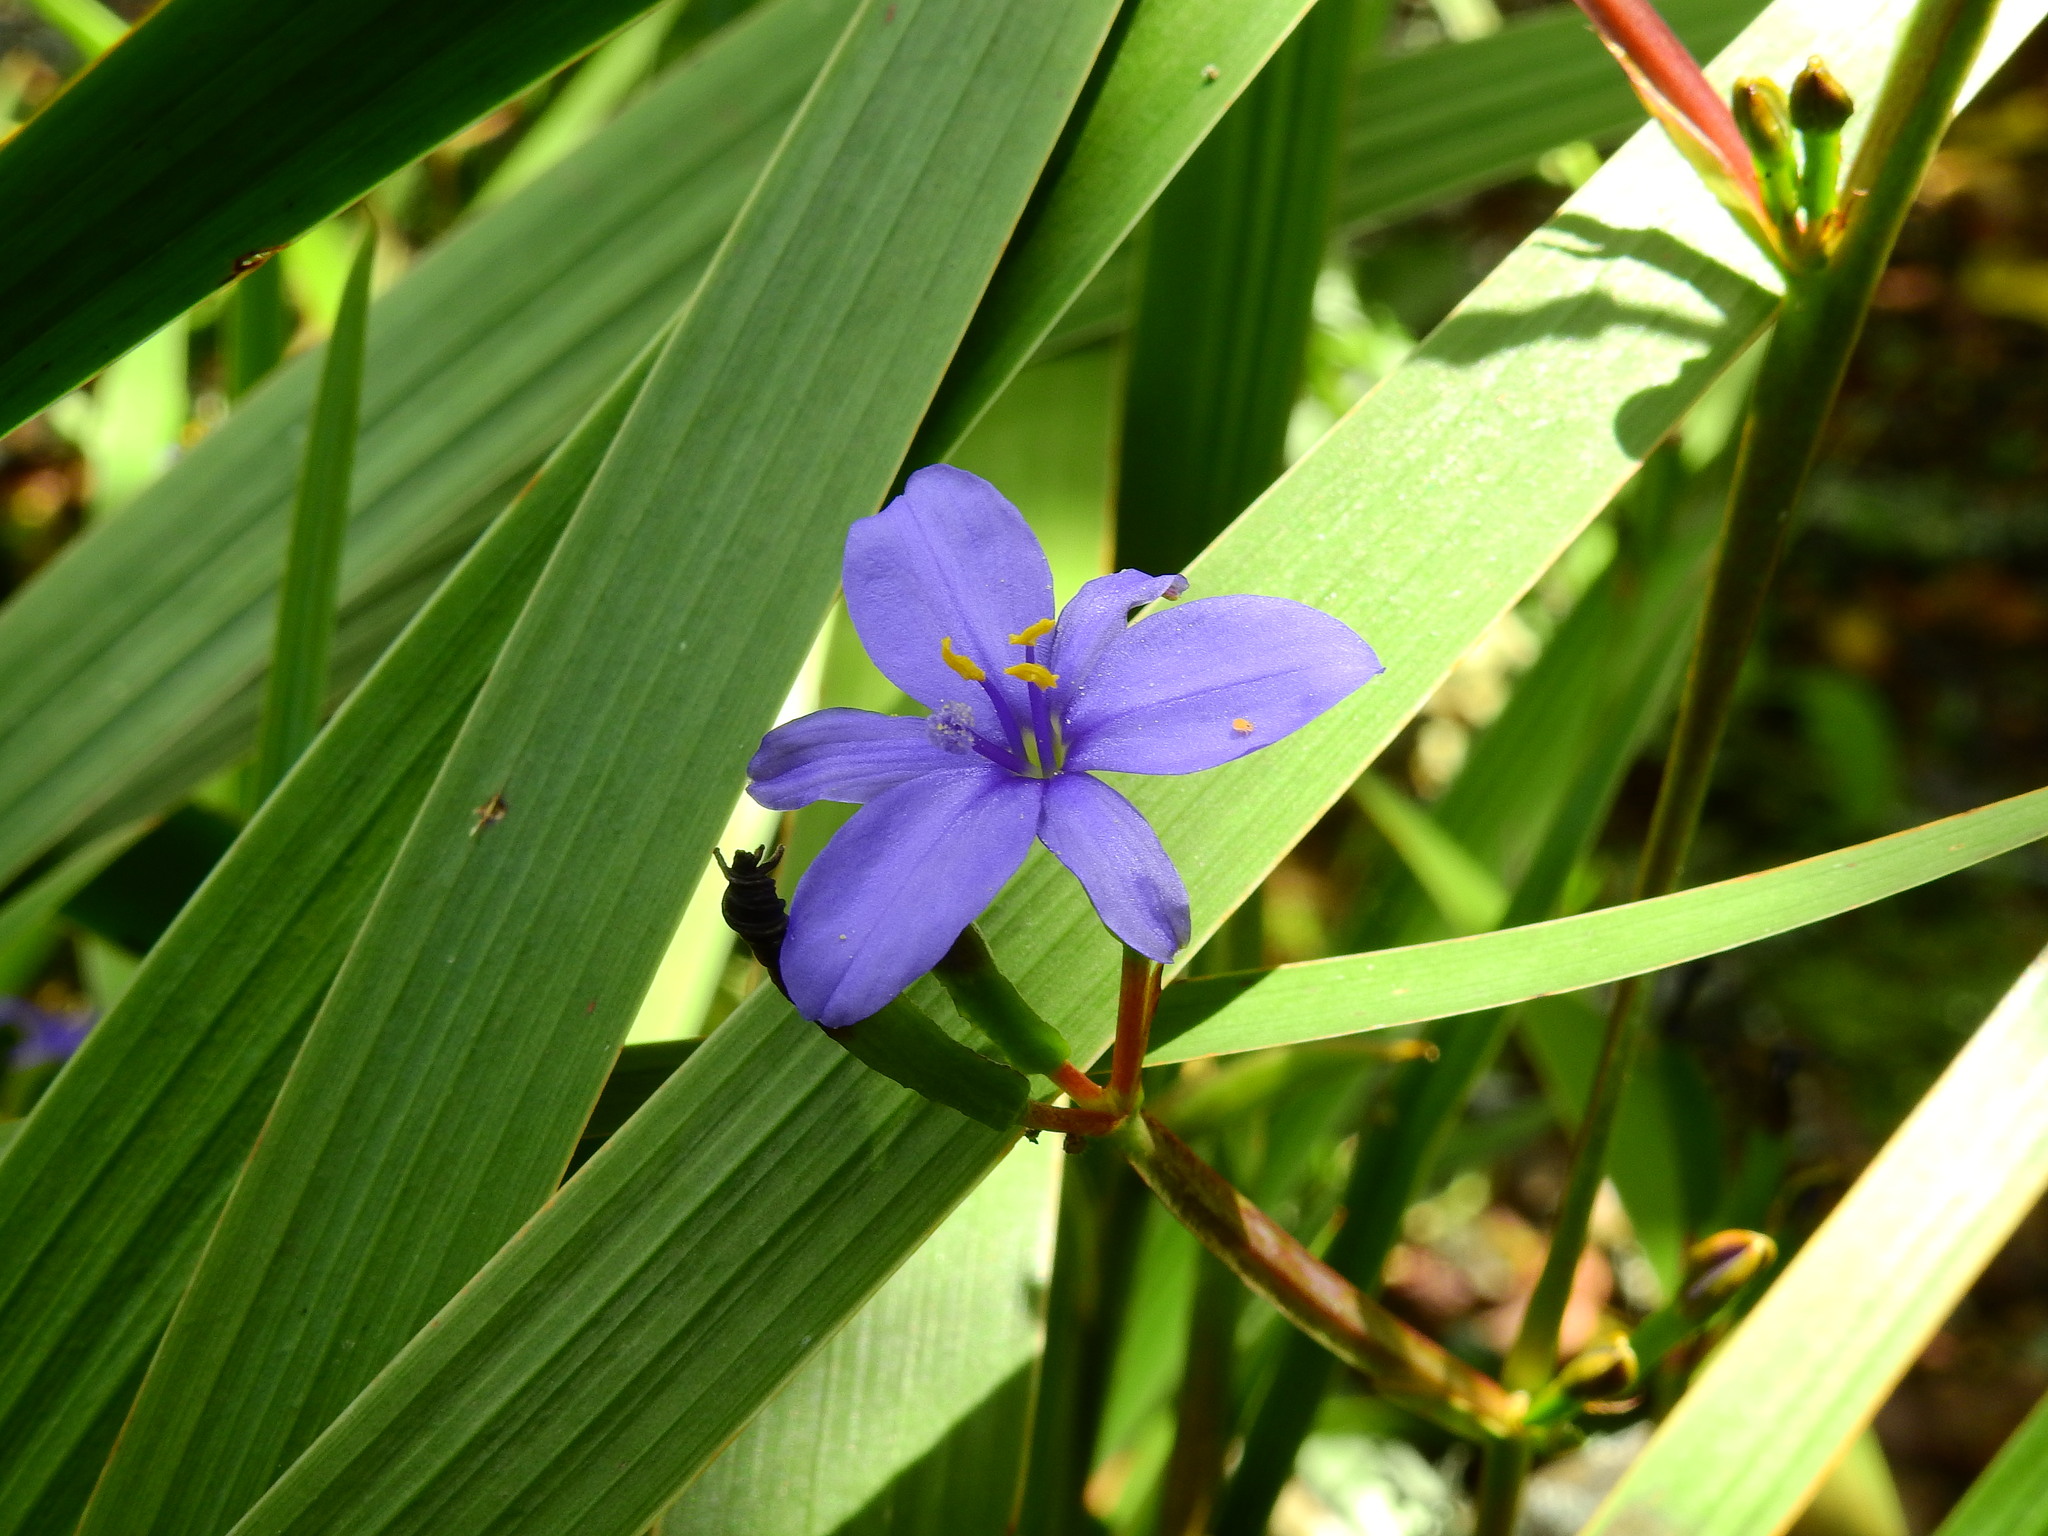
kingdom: Plantae
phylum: Tracheophyta
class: Liliopsida
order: Asparagales
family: Iridaceae
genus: Aristea
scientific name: Aristea ecklonii
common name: Blue corn-lily
